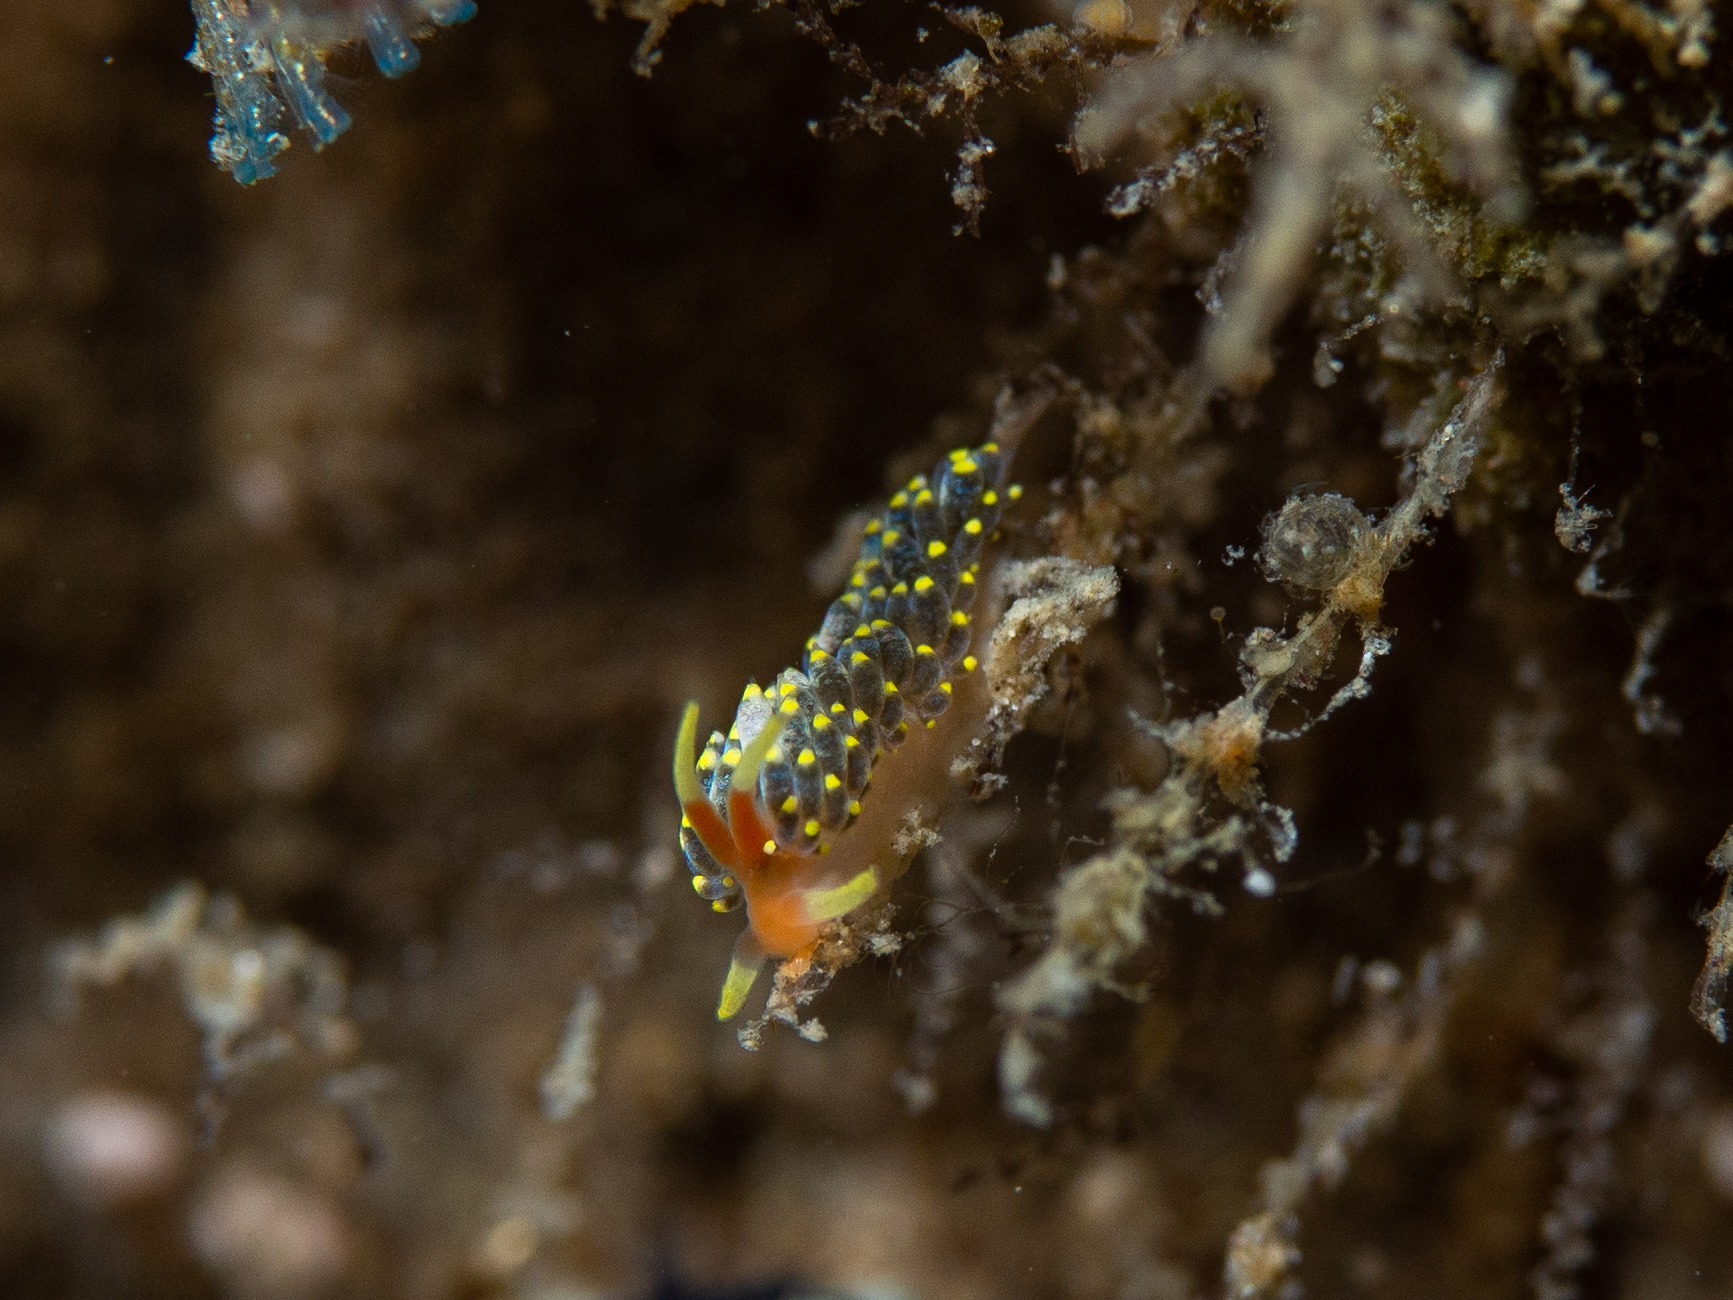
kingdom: Animalia
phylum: Mollusca
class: Gastropoda
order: Nudibranchia
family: Trinchesiidae
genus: Trinchesia
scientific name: Trinchesia catachroma
